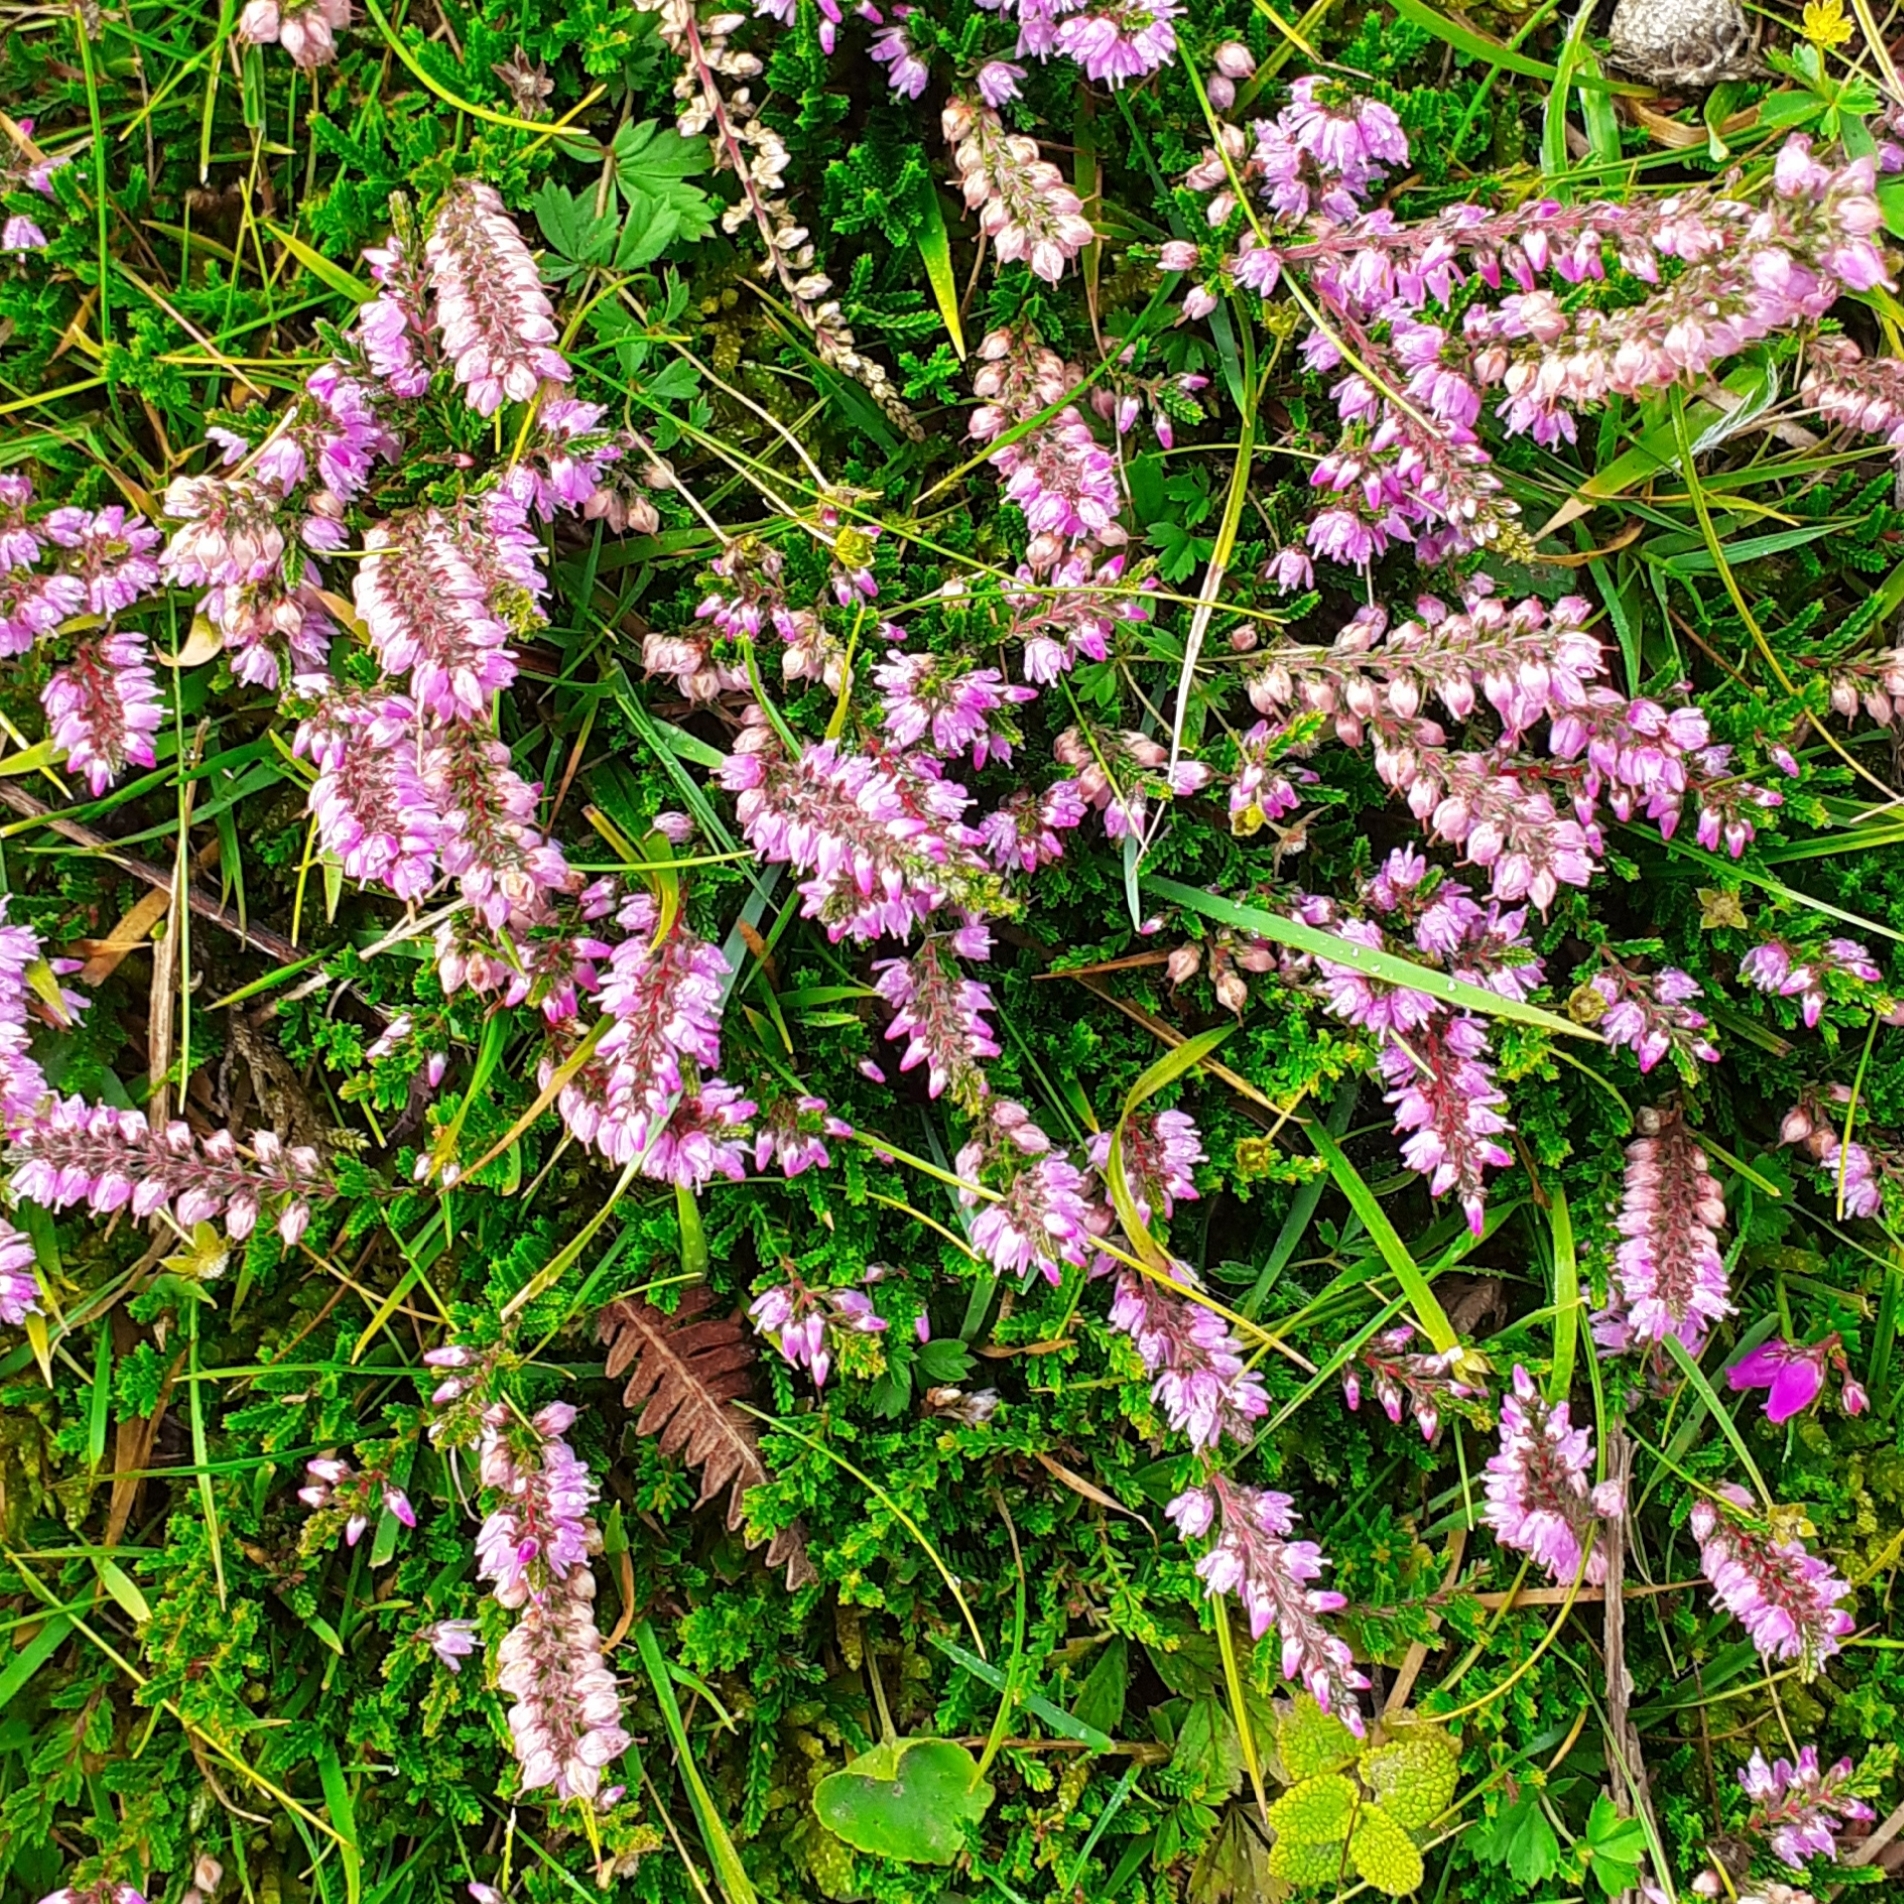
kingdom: Plantae
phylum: Tracheophyta
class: Magnoliopsida
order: Ericales
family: Ericaceae
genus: Calluna
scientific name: Calluna vulgaris
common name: Heather
